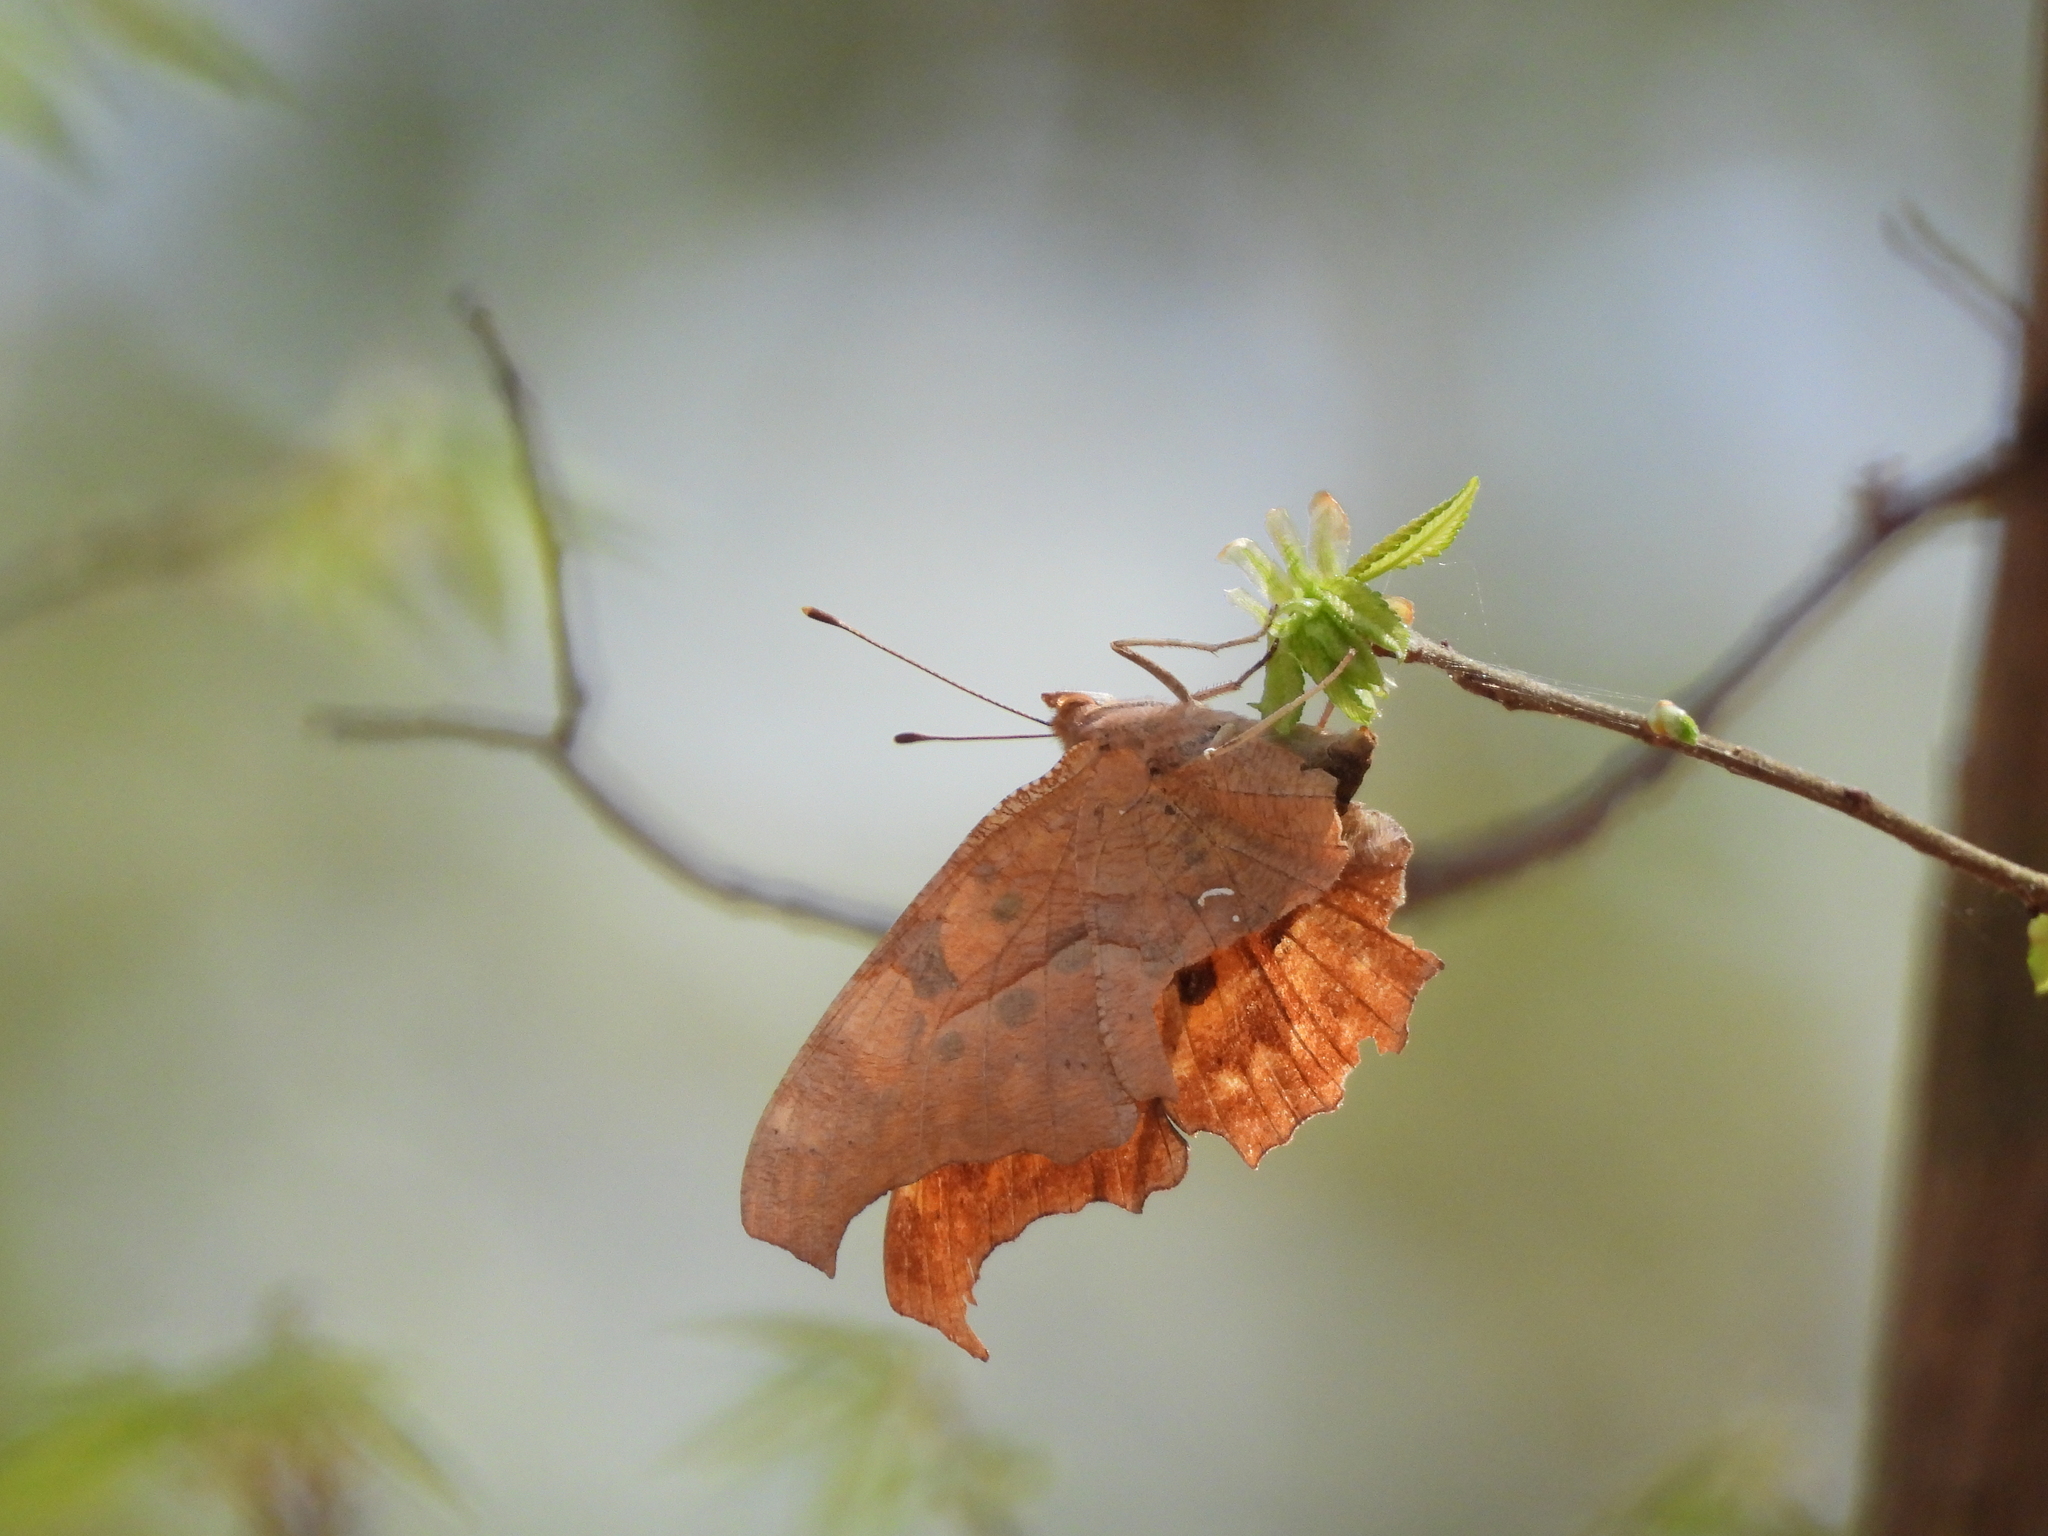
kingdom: Animalia
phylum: Arthropoda
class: Insecta
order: Lepidoptera
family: Nymphalidae
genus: Polygonia
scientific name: Polygonia interrogationis
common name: Question mark
